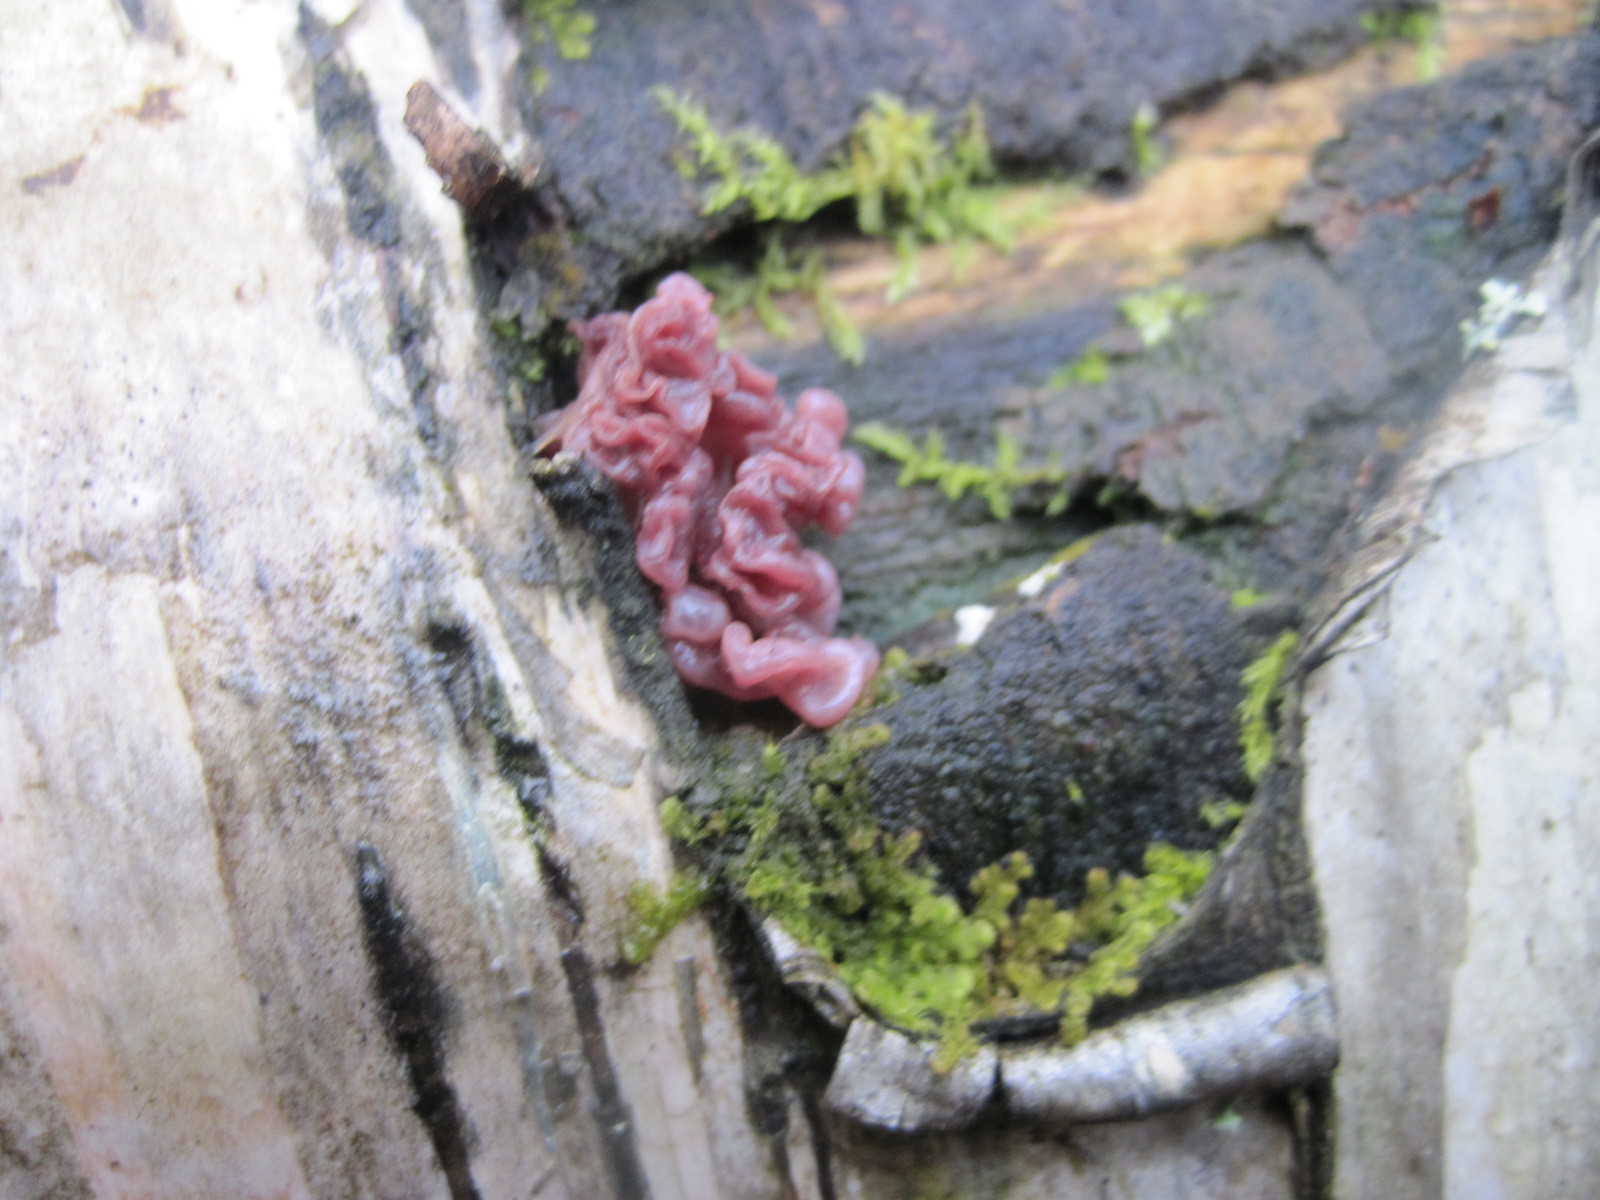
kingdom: Fungi
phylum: Ascomycota
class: Leotiomycetes
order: Helotiales
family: Gelatinodiscaceae
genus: Ascocoryne
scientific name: Ascocoryne sarcoides
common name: Purple jellydisc
